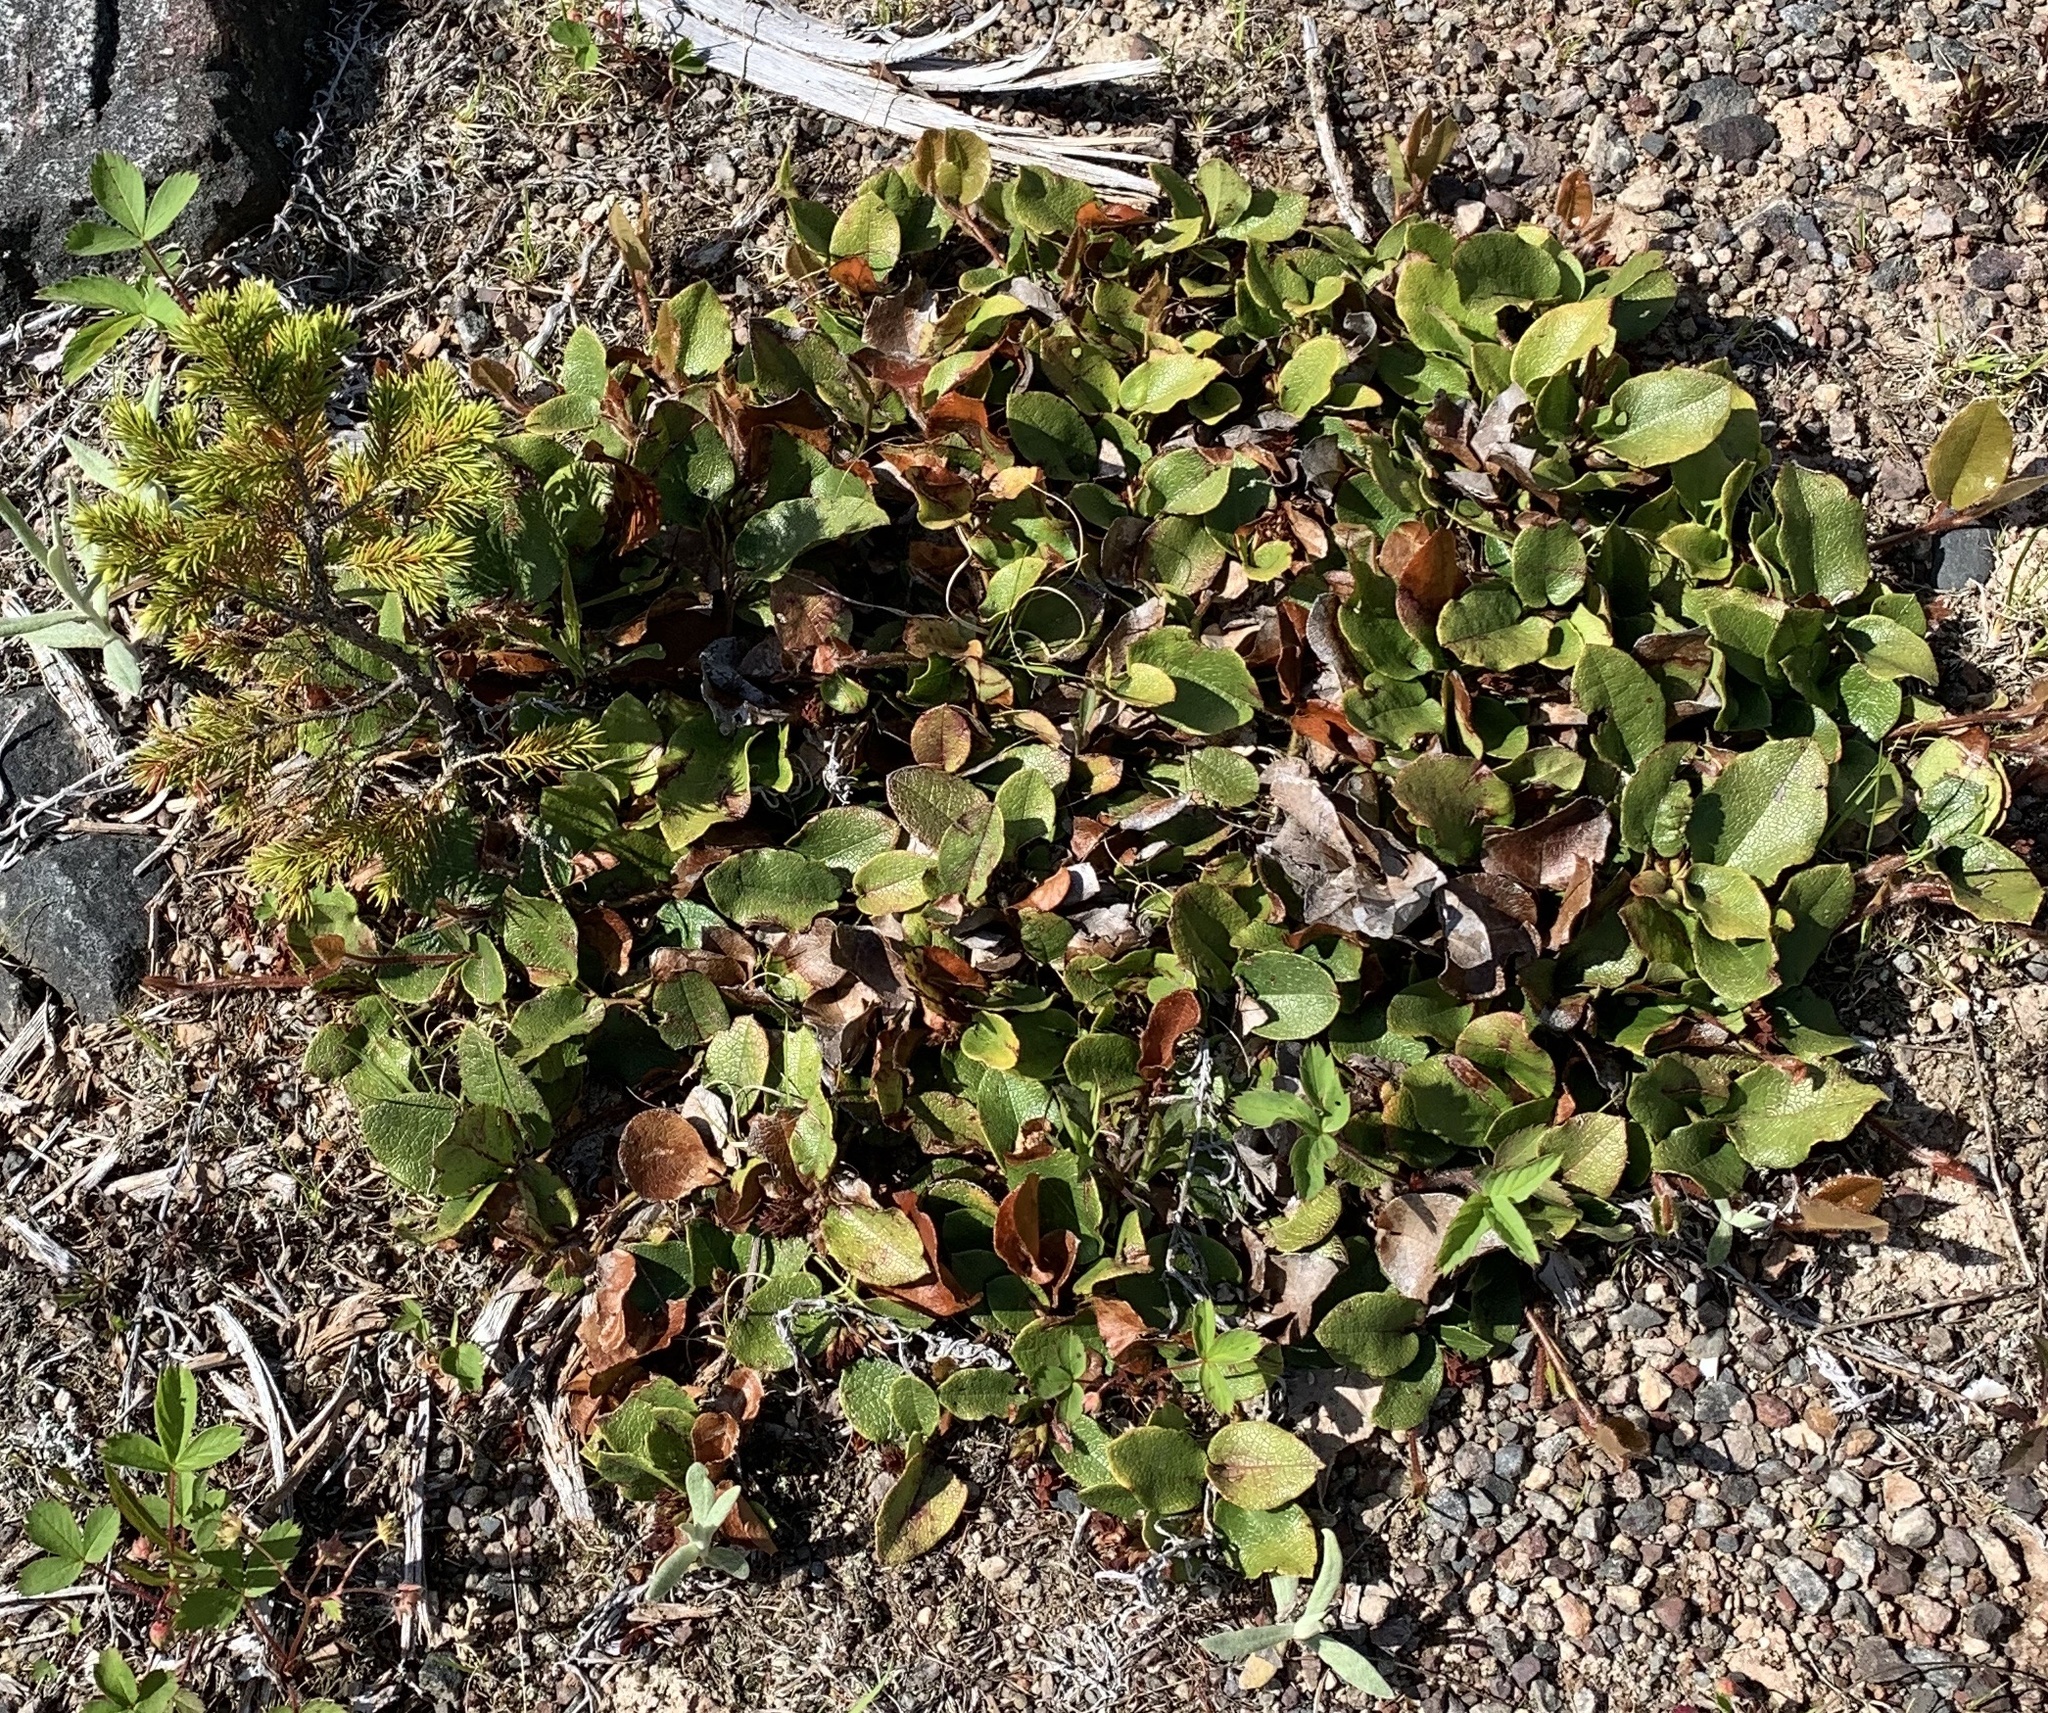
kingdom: Plantae
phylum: Tracheophyta
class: Magnoliopsida
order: Ericales
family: Ericaceae
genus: Epigaea
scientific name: Epigaea repens
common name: Gravelroot
